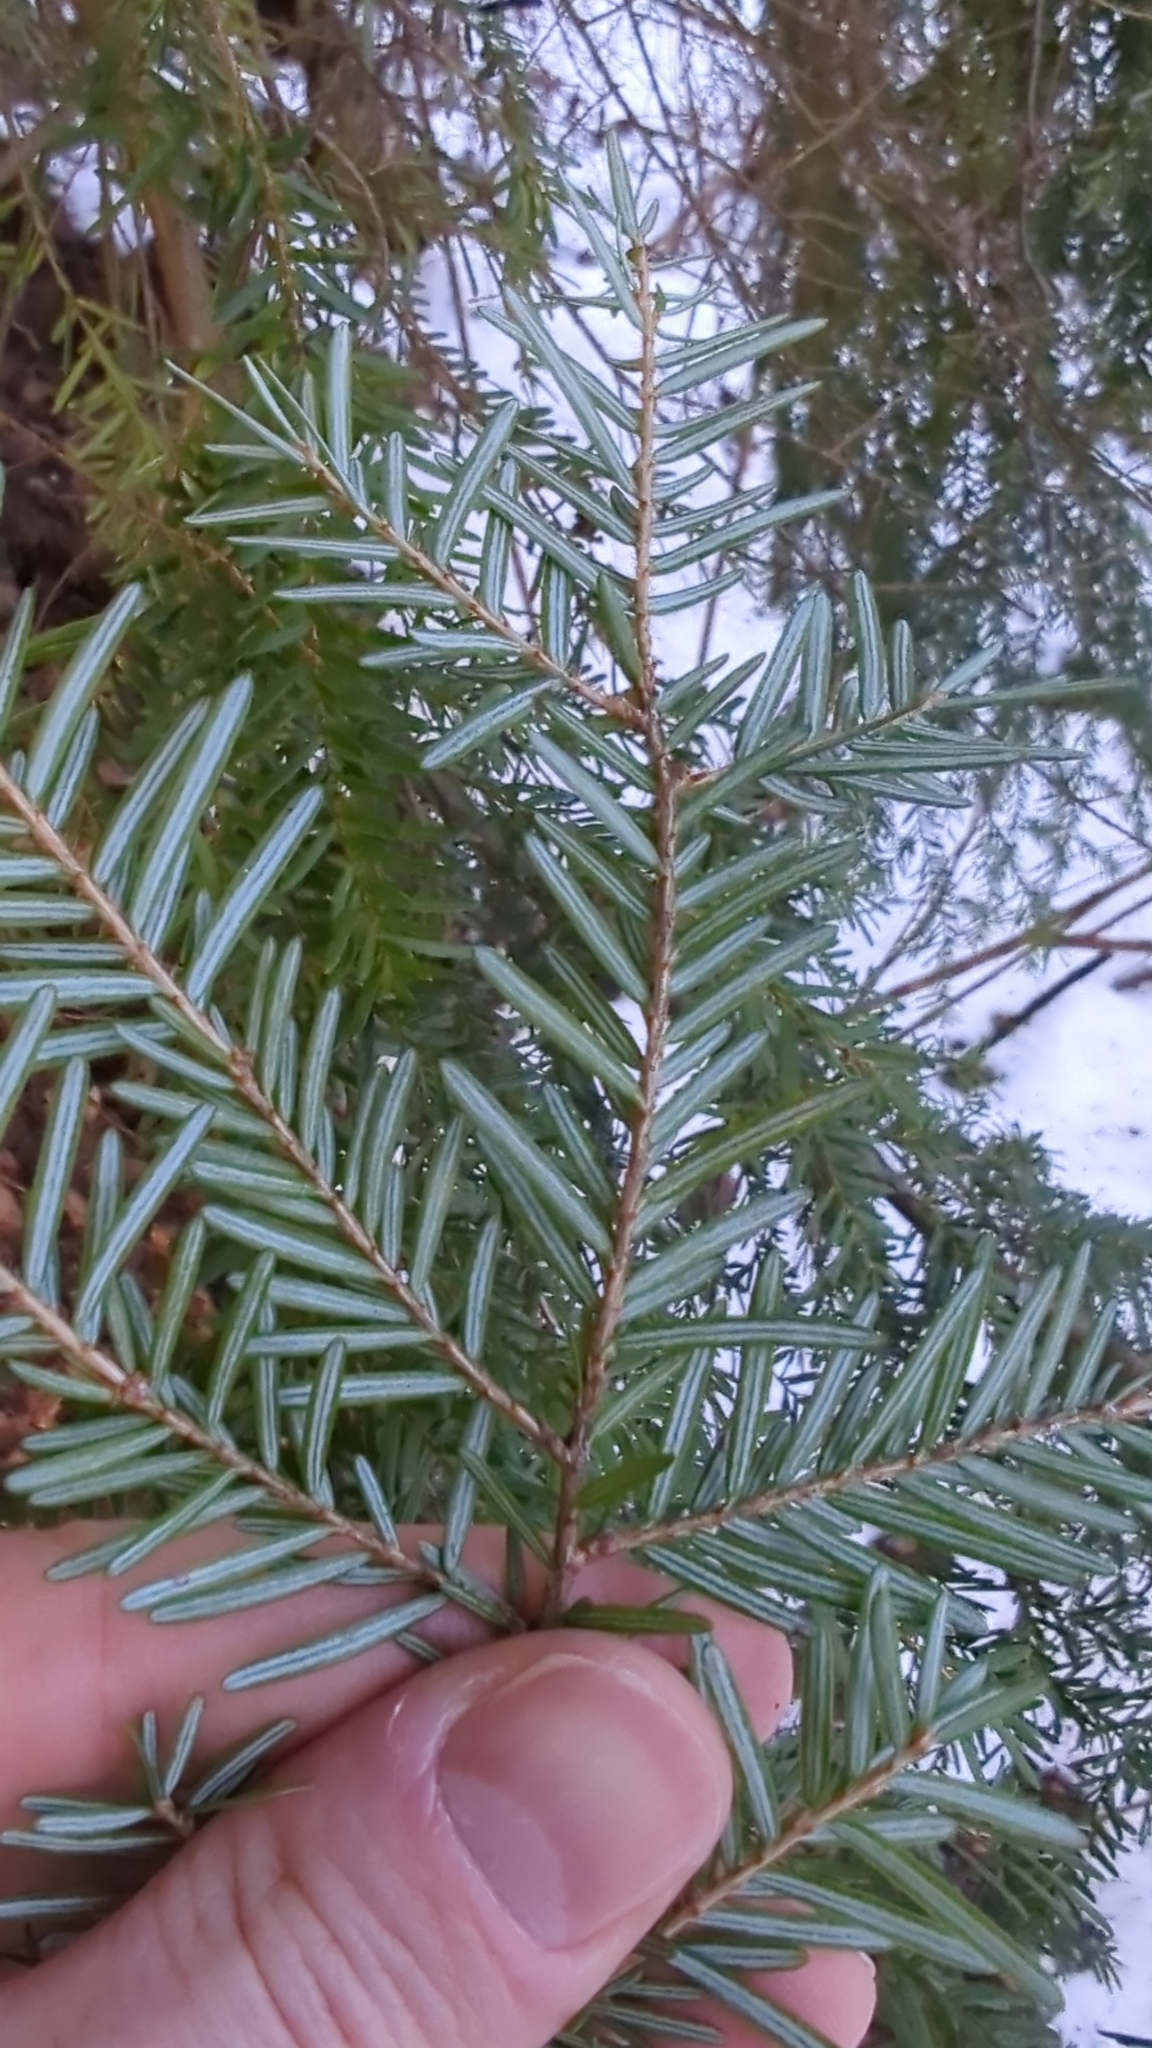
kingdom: Plantae
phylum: Tracheophyta
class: Pinopsida
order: Pinales
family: Pinaceae
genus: Tsuga
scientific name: Tsuga heterophylla
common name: Western hemlock
